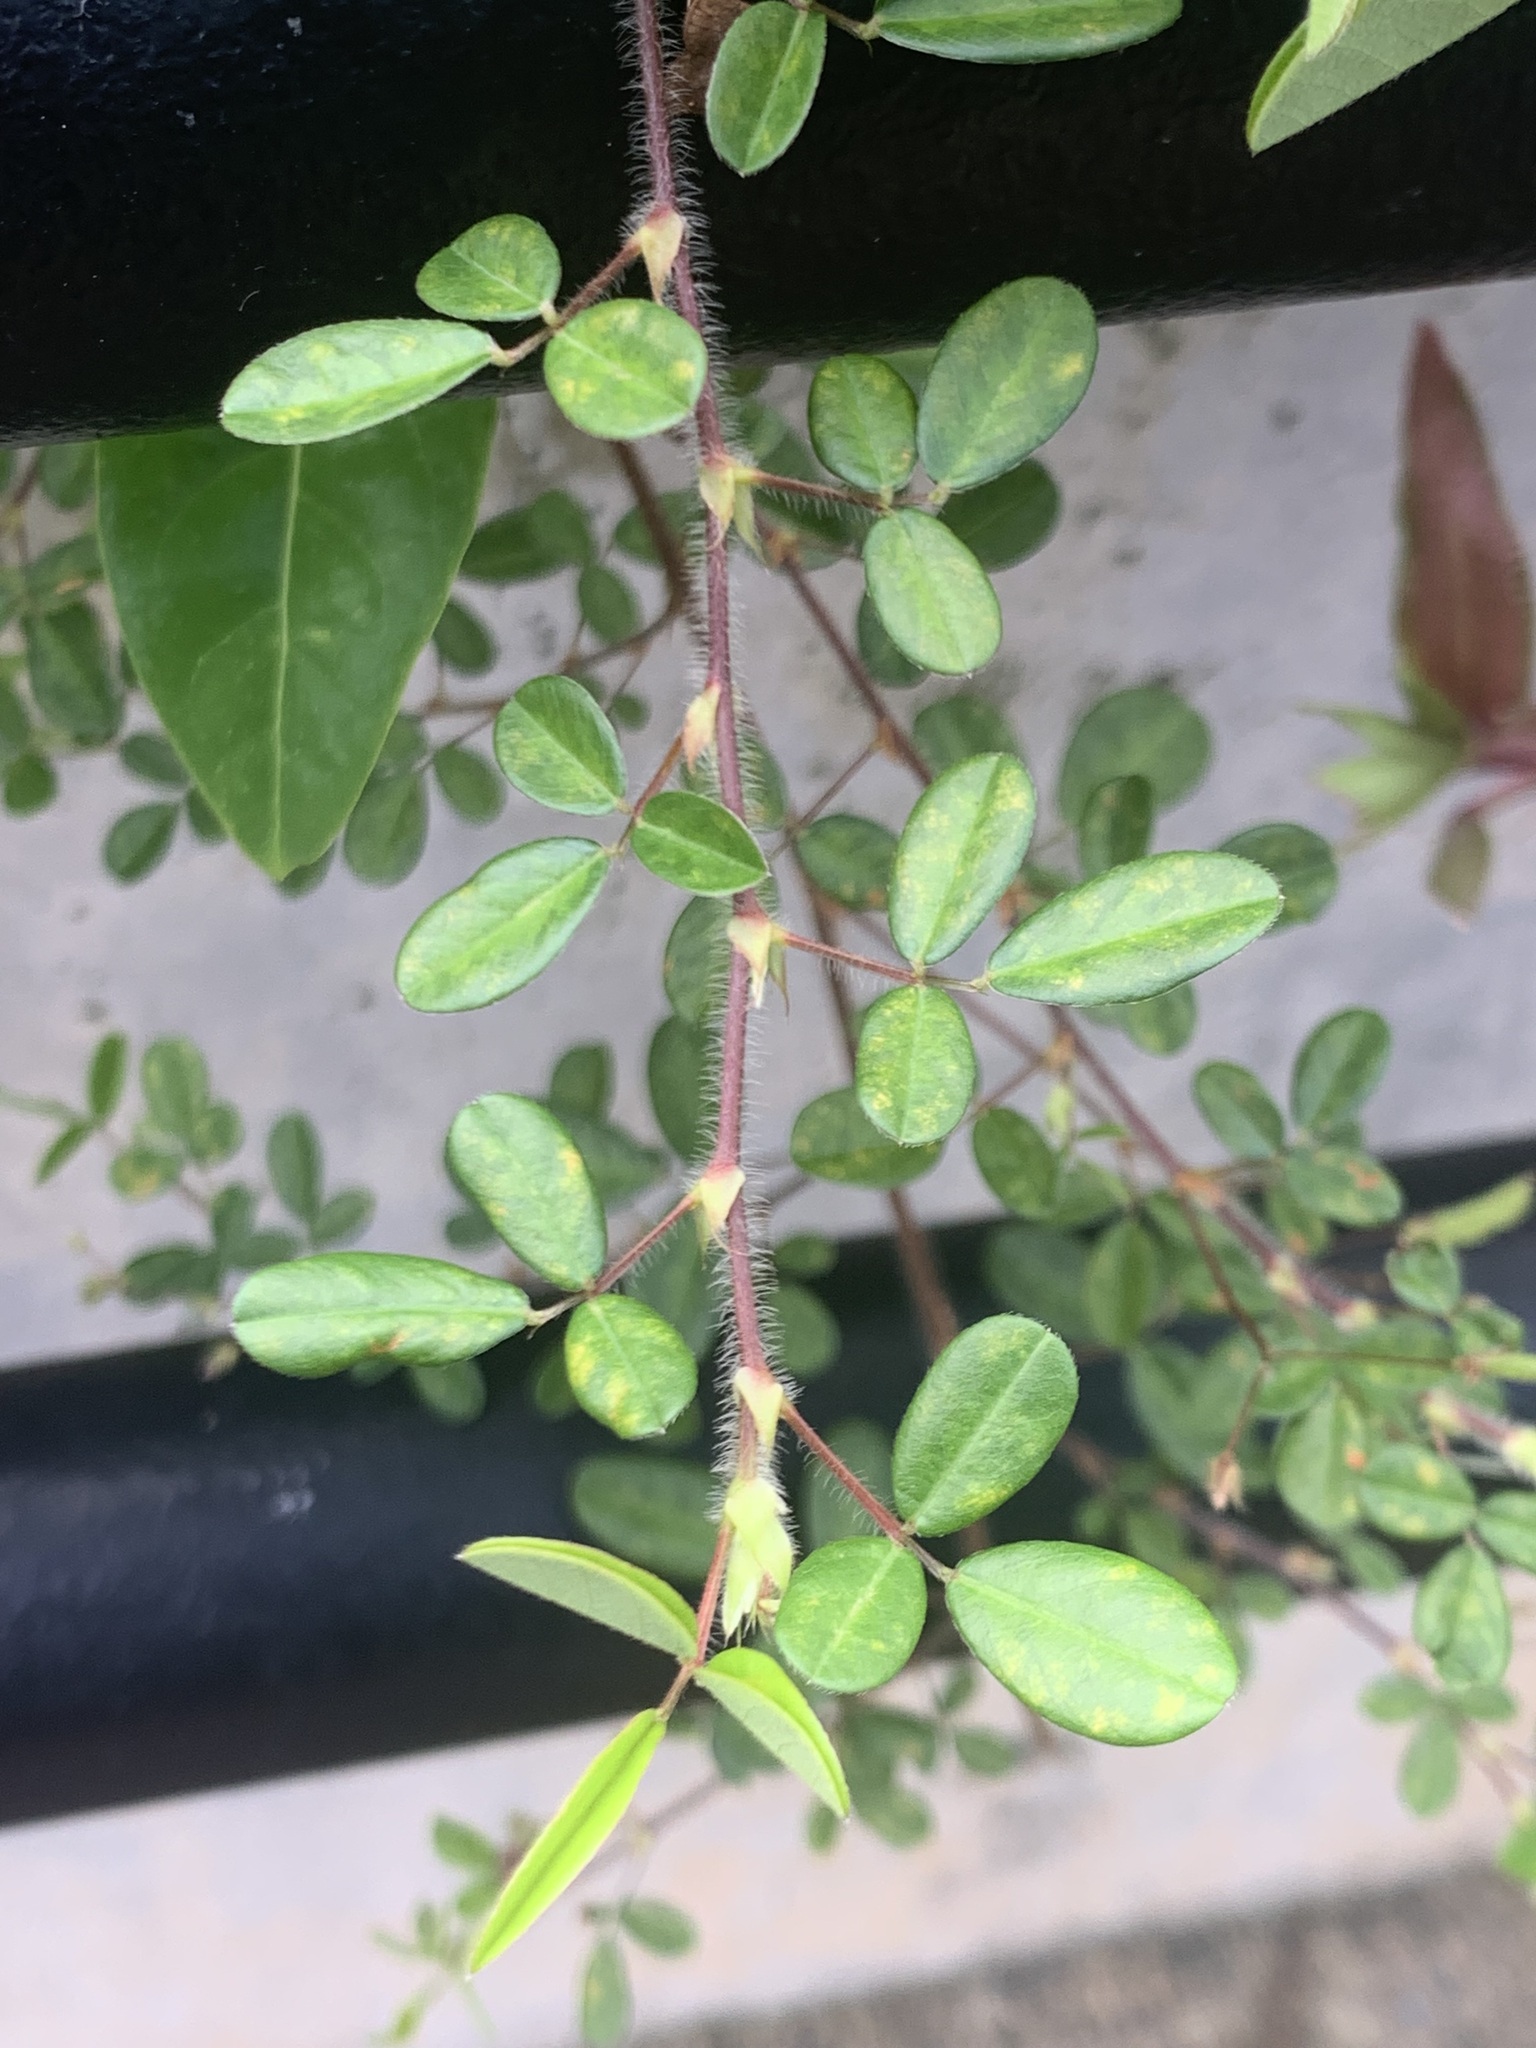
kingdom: Plantae
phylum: Tracheophyta
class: Magnoliopsida
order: Fabales
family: Fabaceae
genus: Grona
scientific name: Grona heterophylla
